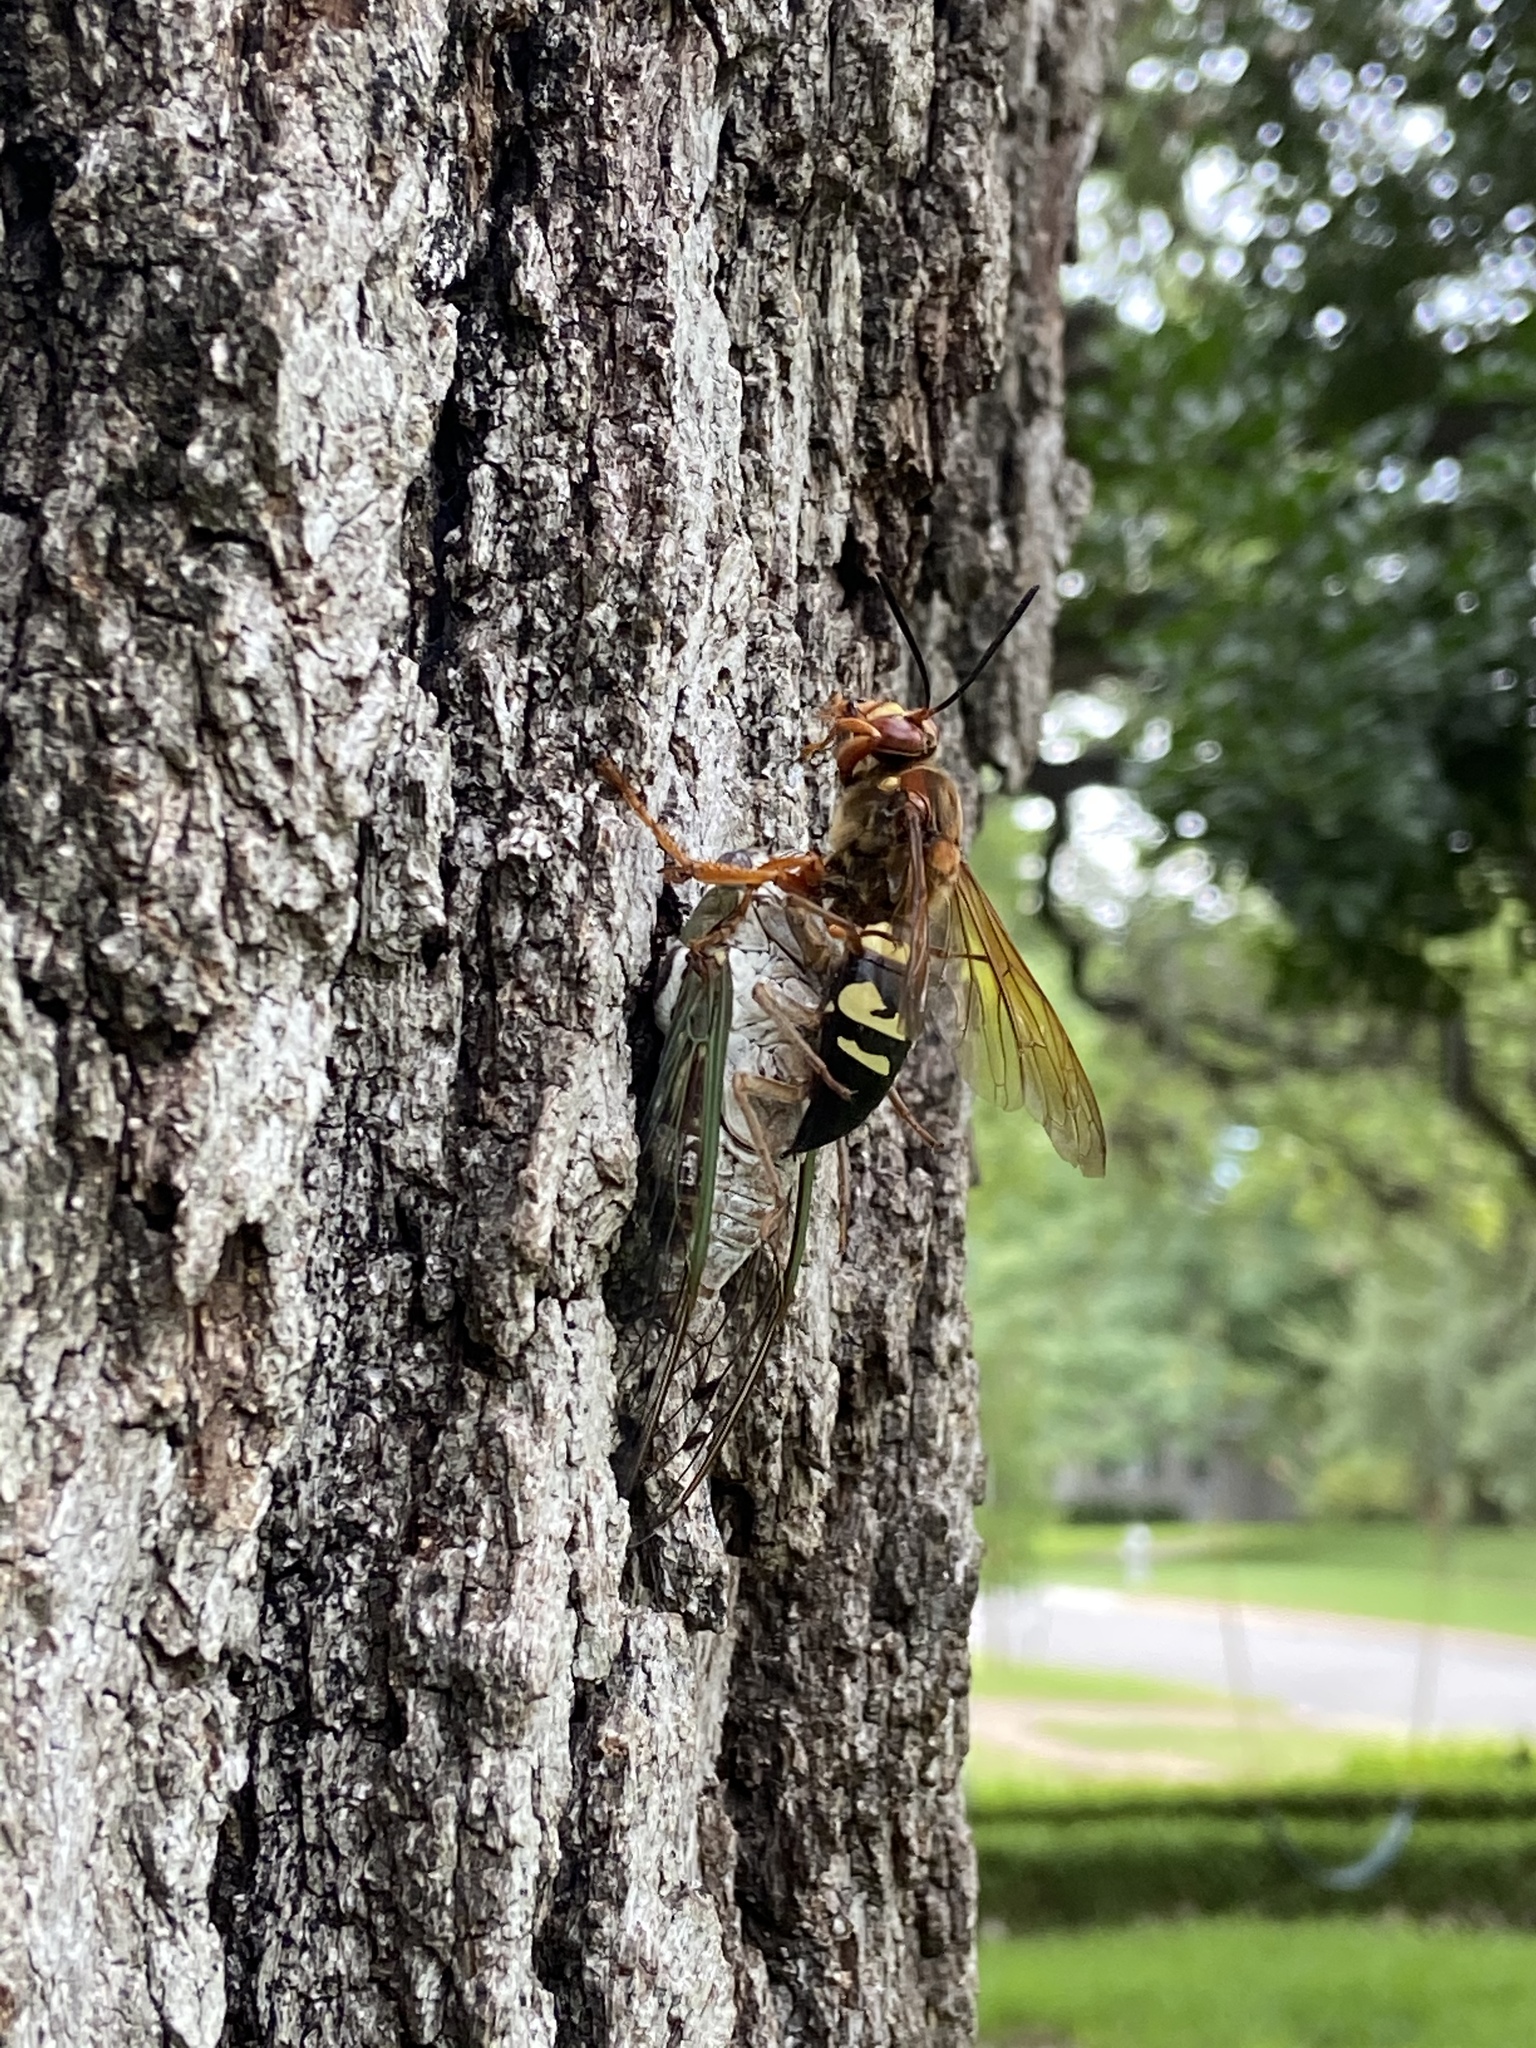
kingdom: Animalia
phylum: Arthropoda
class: Insecta
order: Hymenoptera
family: Crabronidae
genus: Sphecius
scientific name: Sphecius speciosus
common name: Cicada killer
